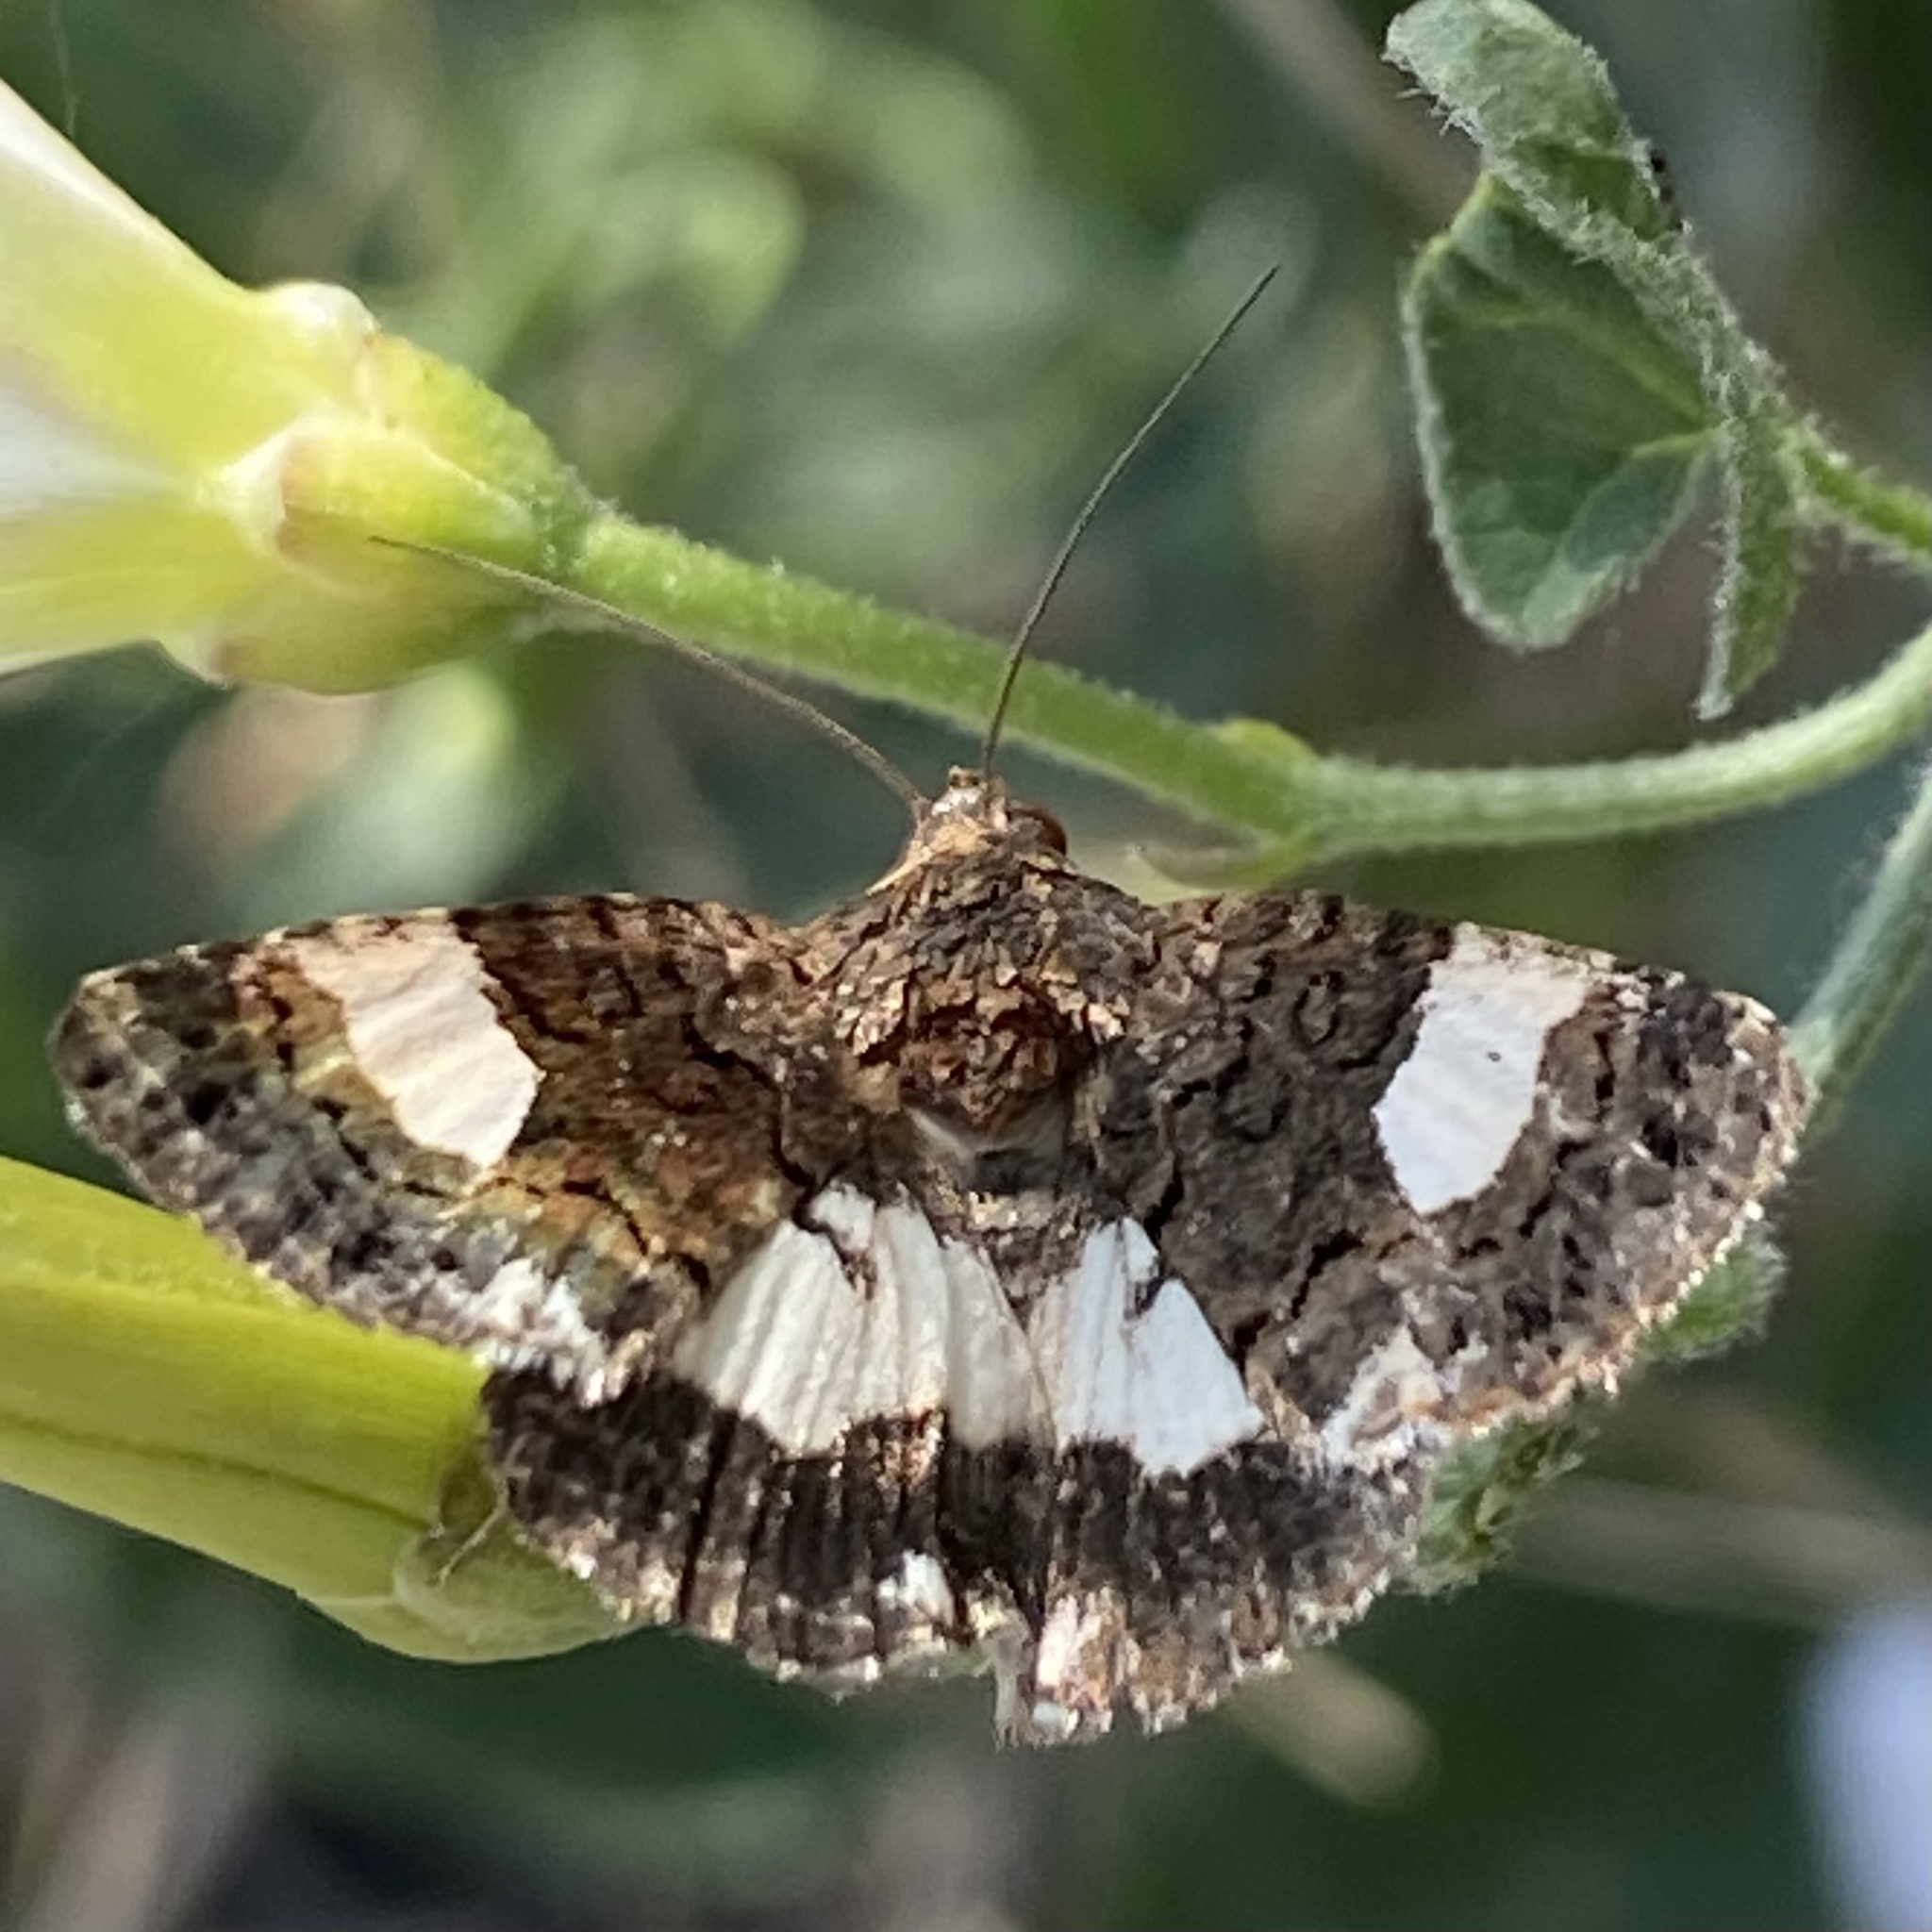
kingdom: Animalia
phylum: Arthropoda
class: Insecta
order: Lepidoptera
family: Erebidae
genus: Tyta
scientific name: Tyta luctuosa
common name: Four-spotted
